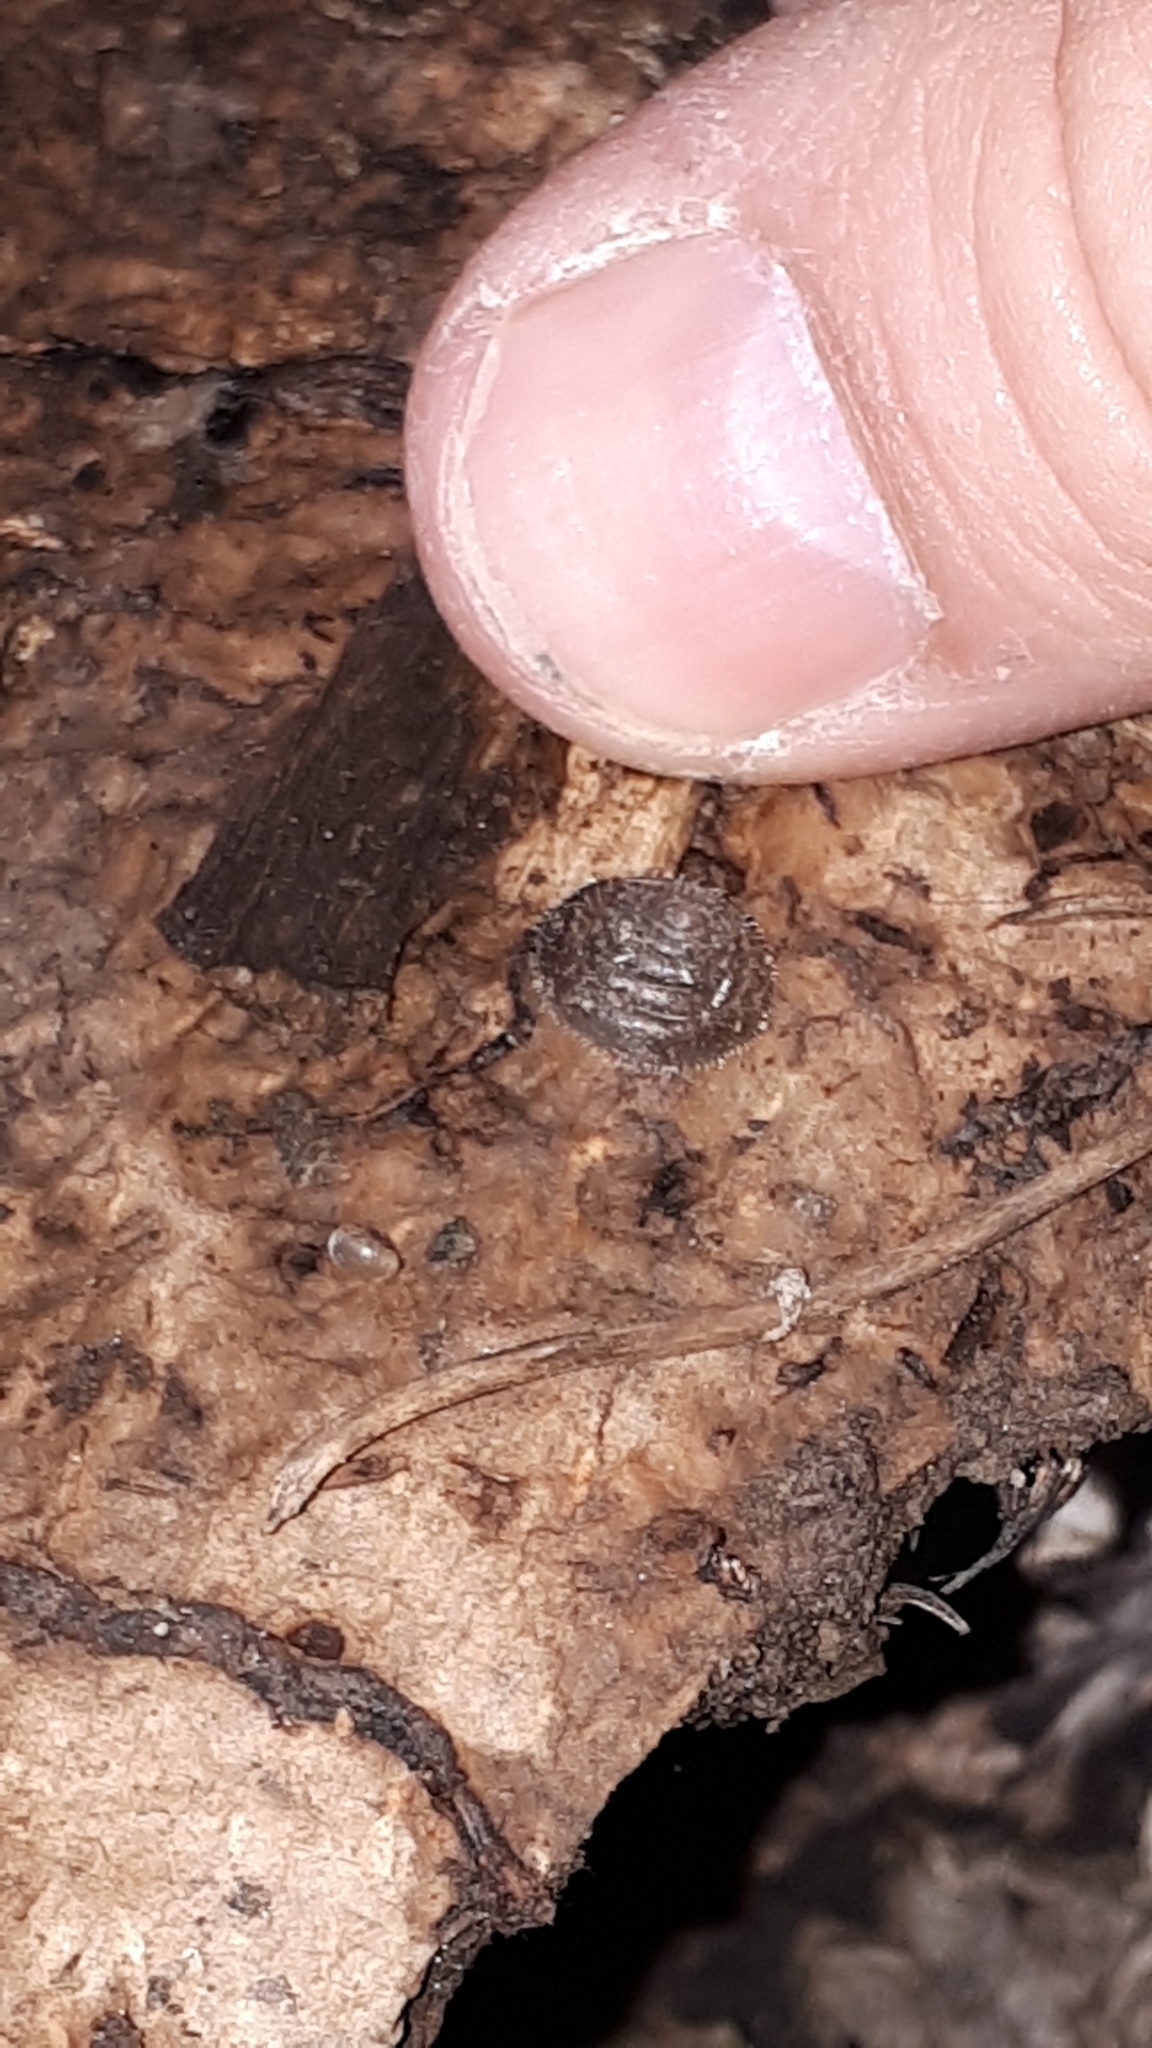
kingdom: Animalia
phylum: Mollusca
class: Gastropoda
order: Stylommatophora
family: Hygromiidae
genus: Petasina
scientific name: Petasina unidentata
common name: Single-toothed hairysnail
